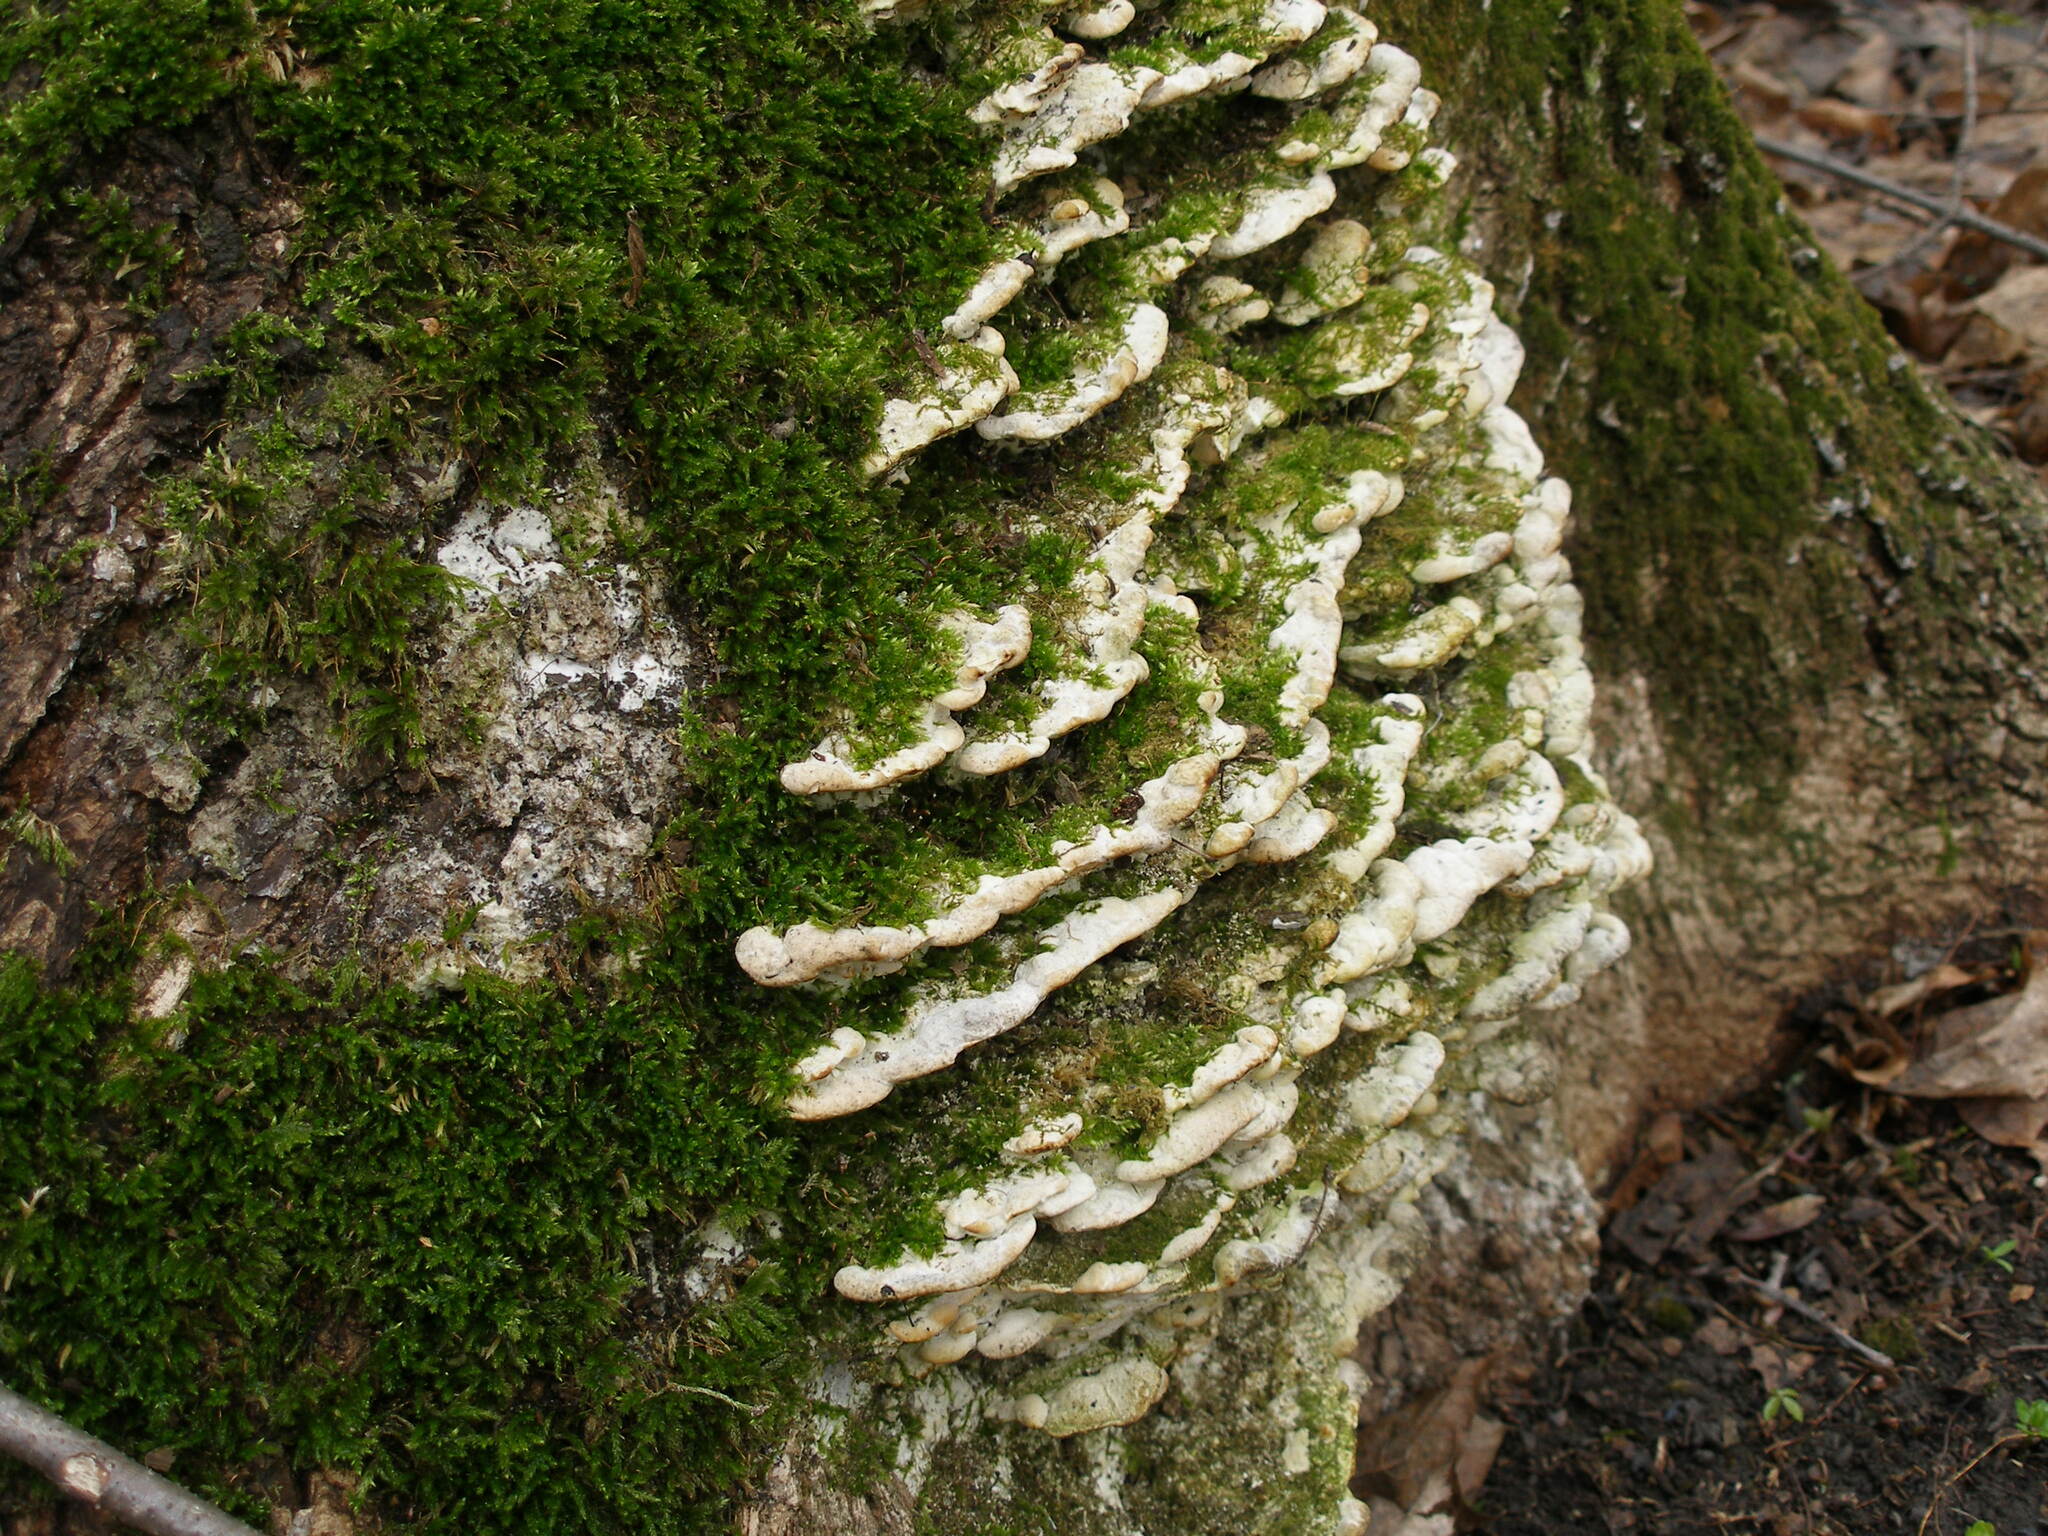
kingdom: Fungi
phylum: Basidiomycota
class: Agaricomycetes
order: Hymenochaetales
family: Oxyporaceae
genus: Oxyporus
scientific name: Oxyporus populinus
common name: Poplar bracket
